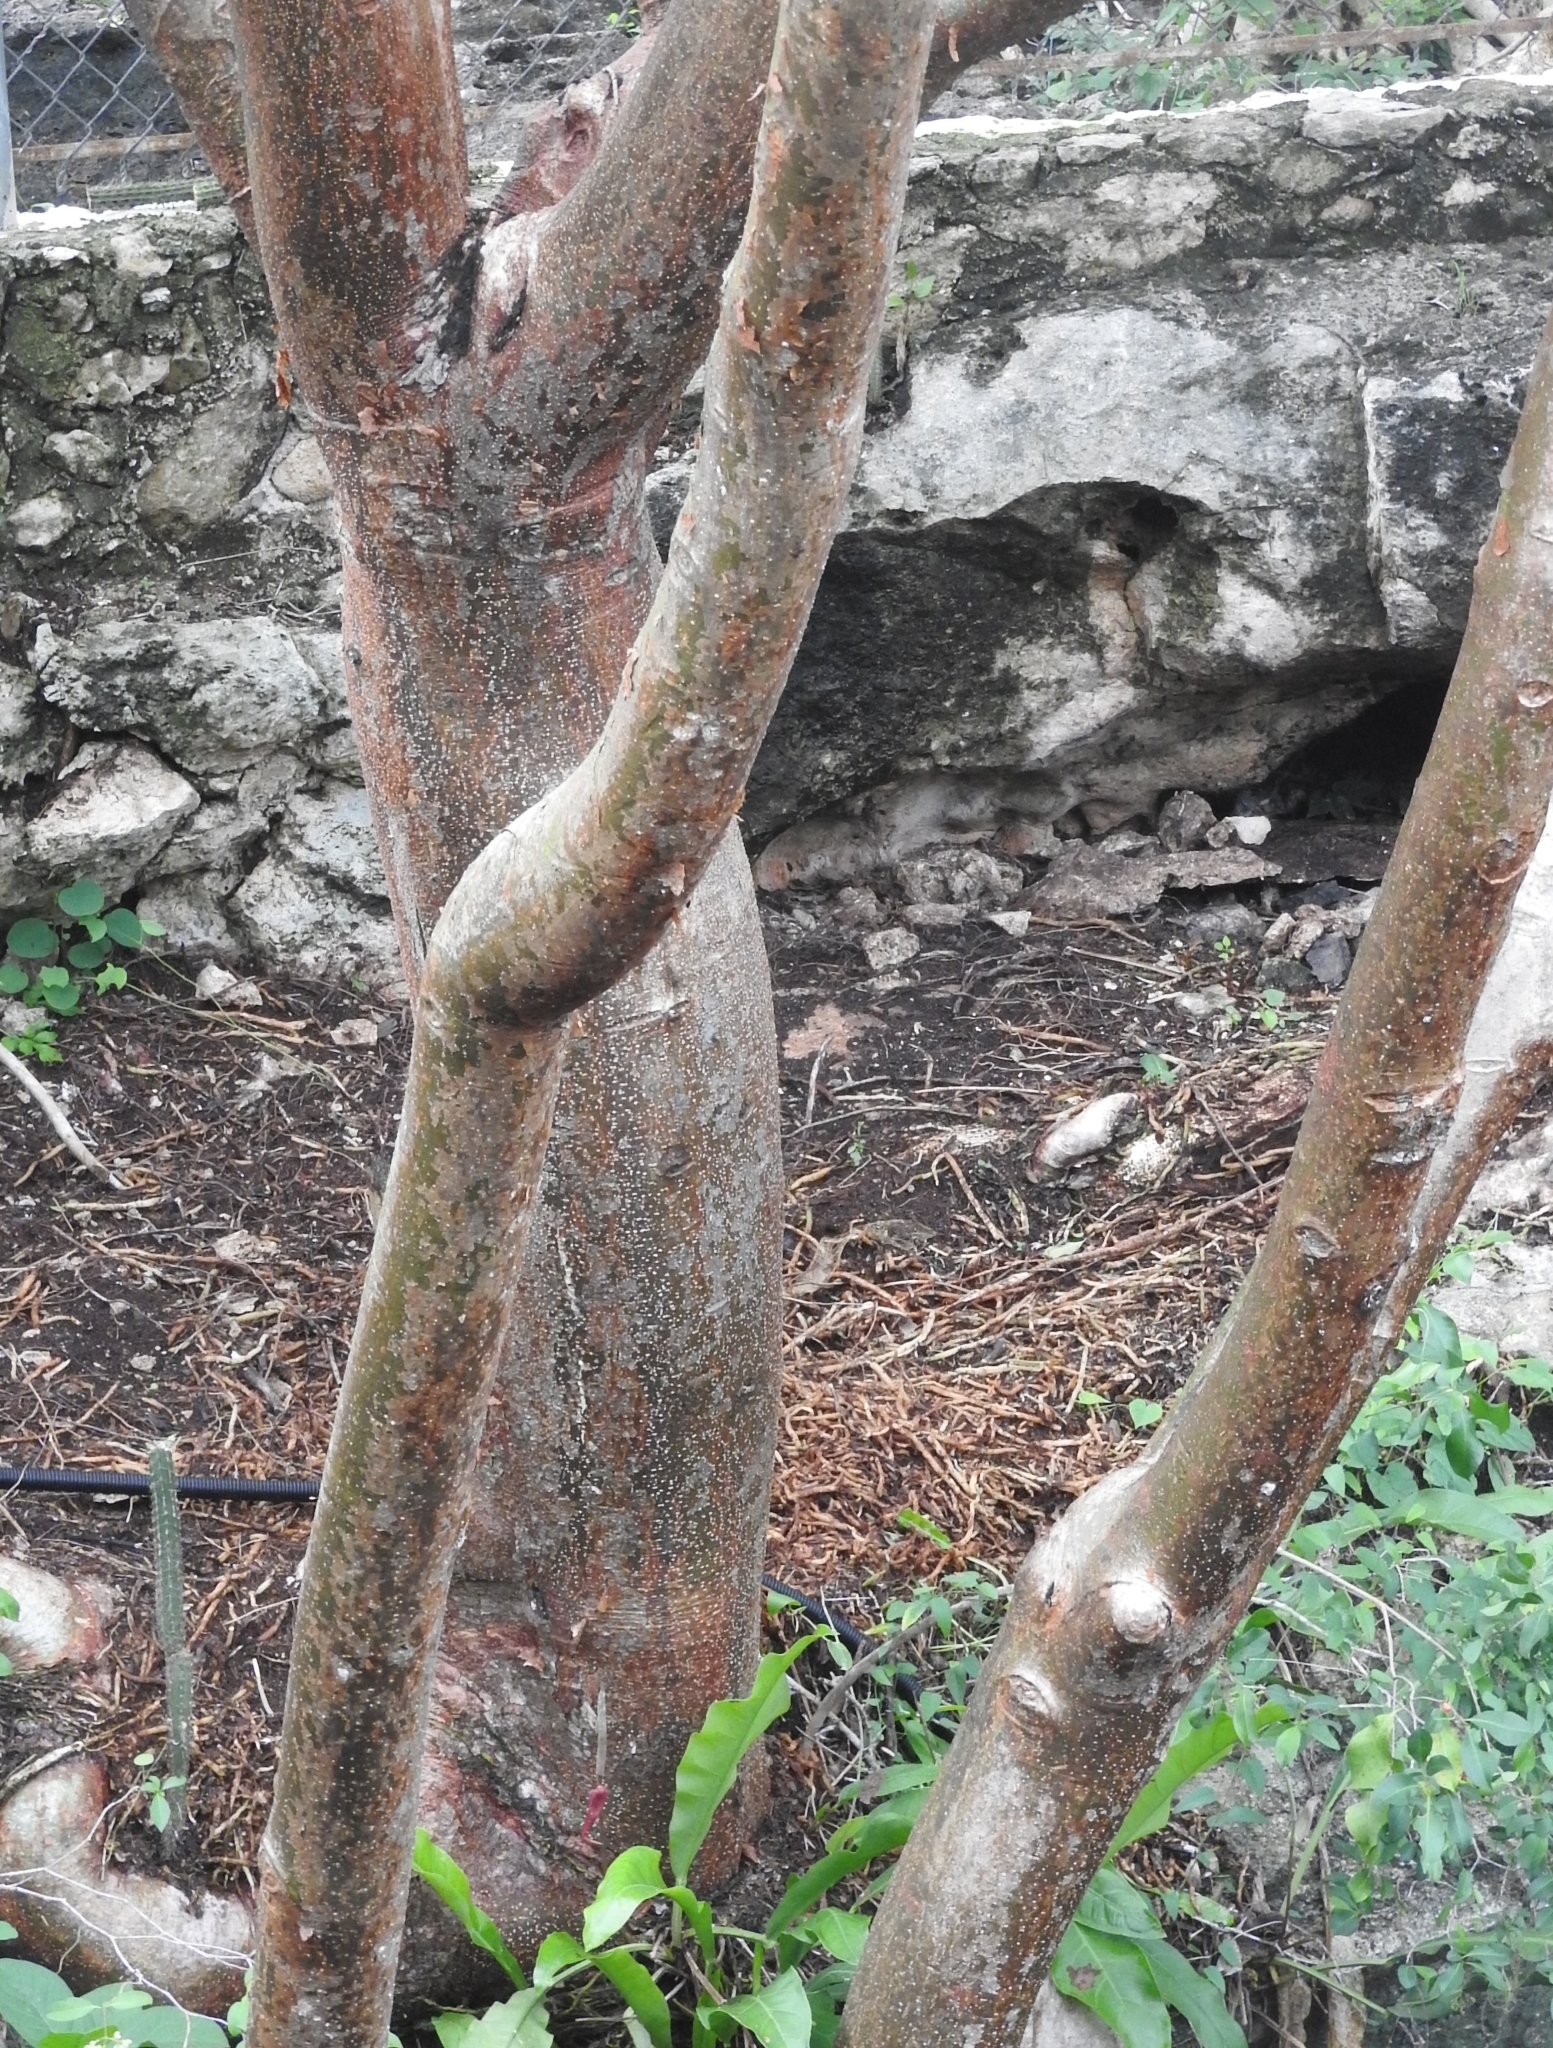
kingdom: Plantae
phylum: Tracheophyta
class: Magnoliopsida
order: Sapindales
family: Burseraceae
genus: Bursera
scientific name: Bursera simaruba
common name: Turpentine tree
